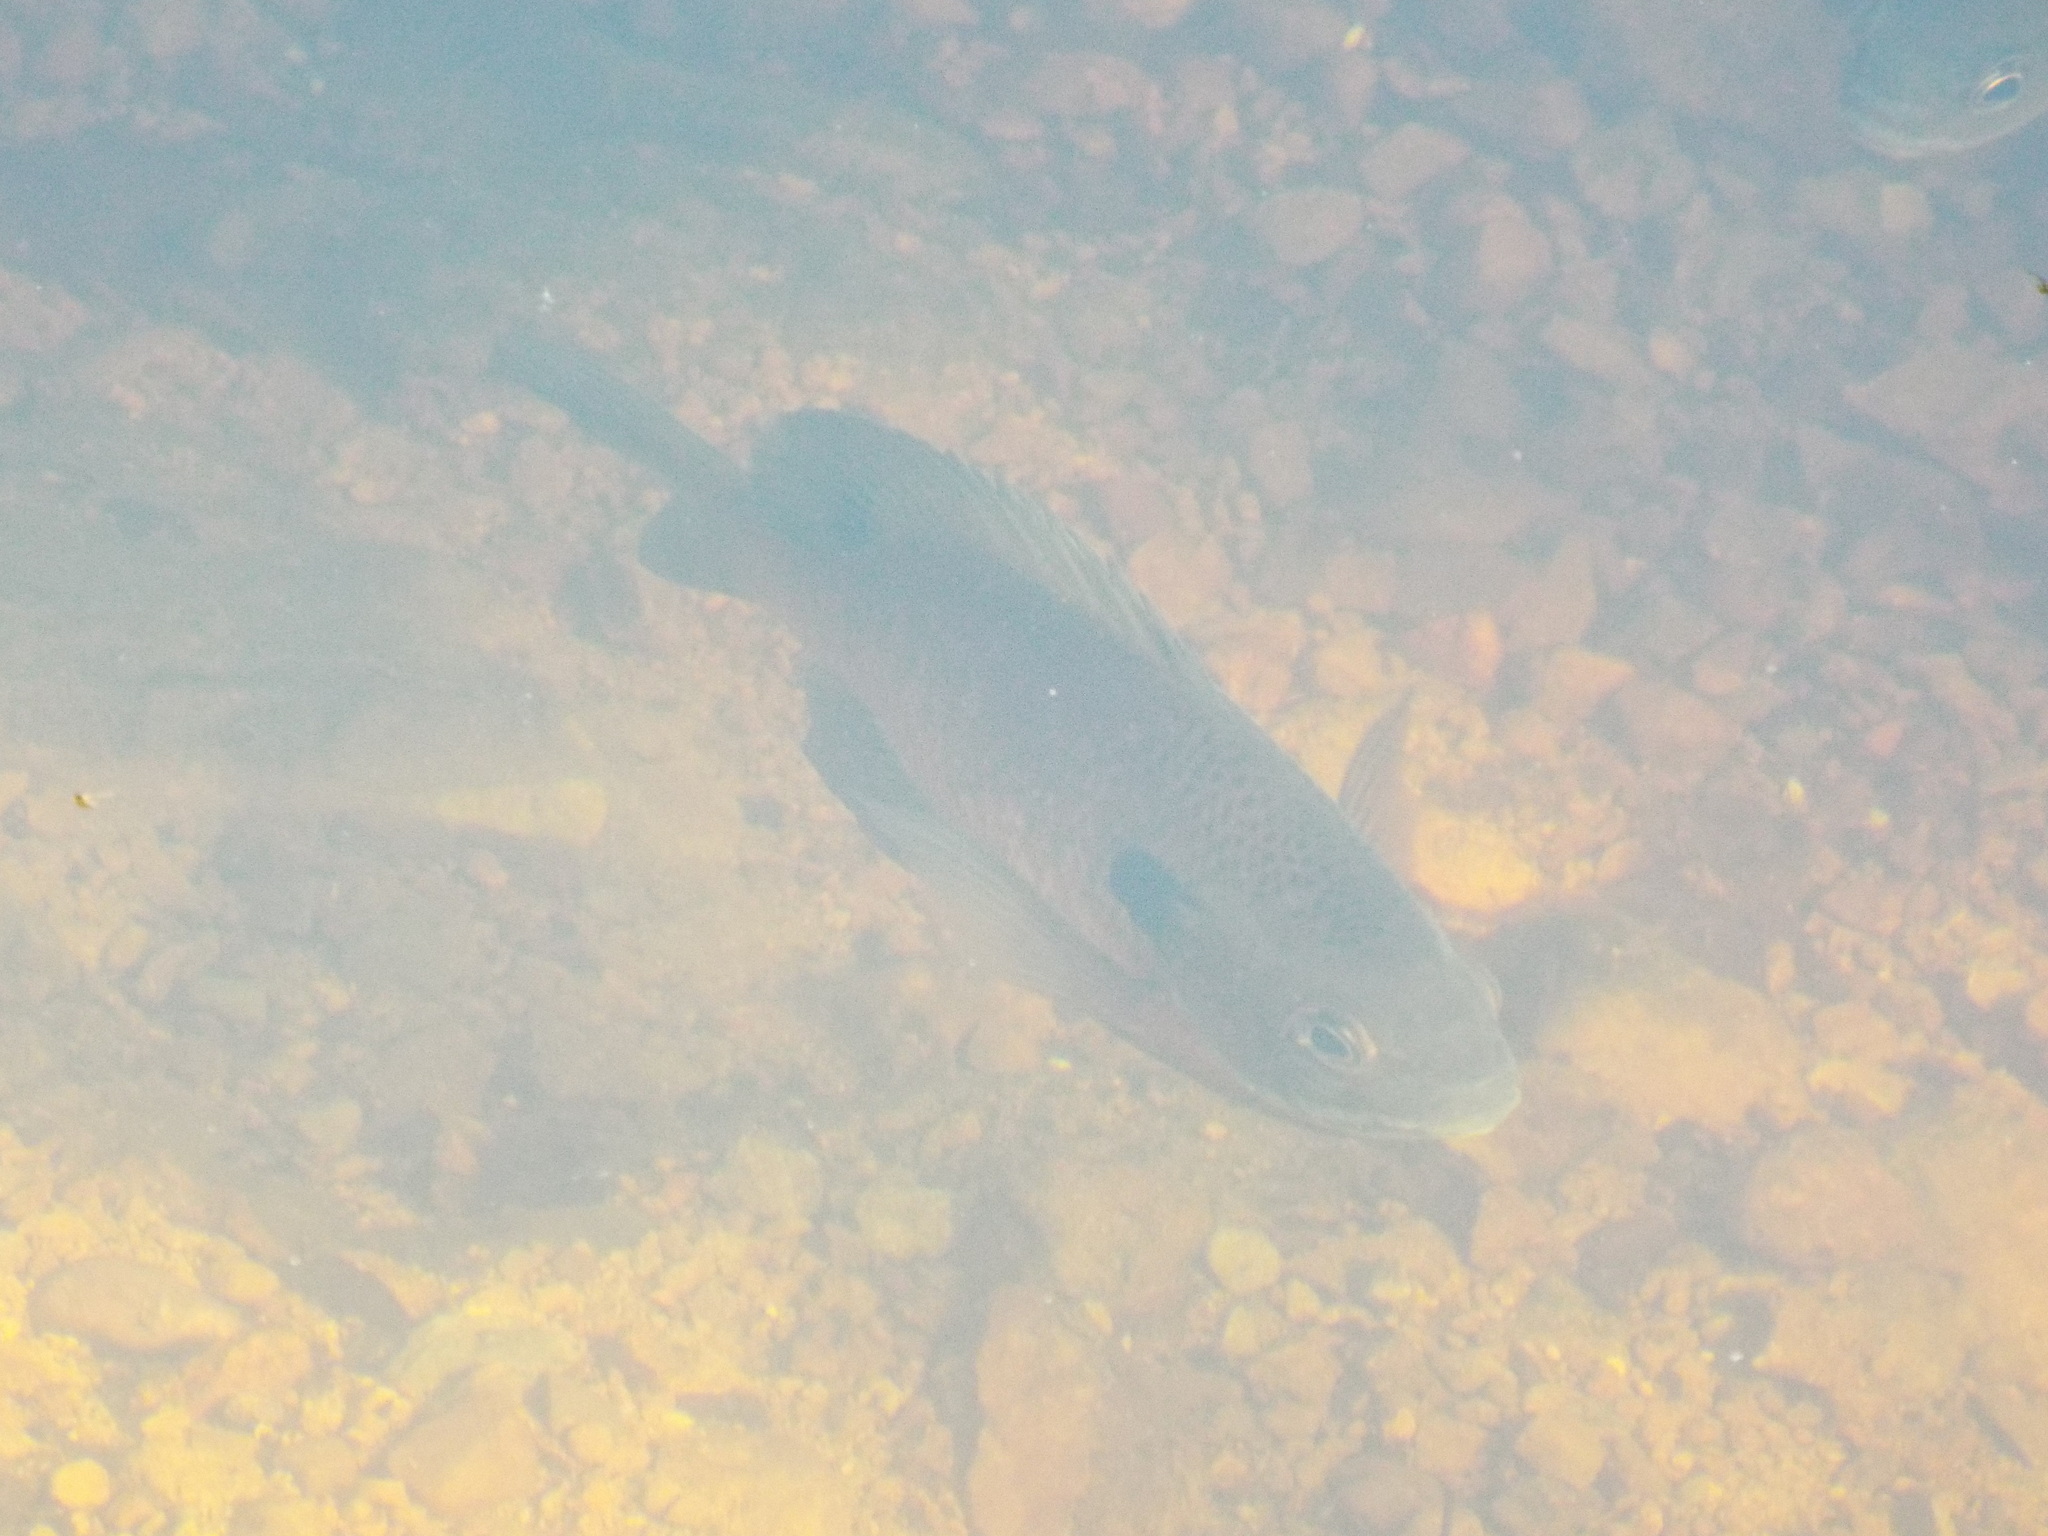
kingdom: Animalia
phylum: Chordata
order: Perciformes
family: Centrarchidae
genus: Lepomis
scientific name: Lepomis macrochirus
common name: Bluegill
